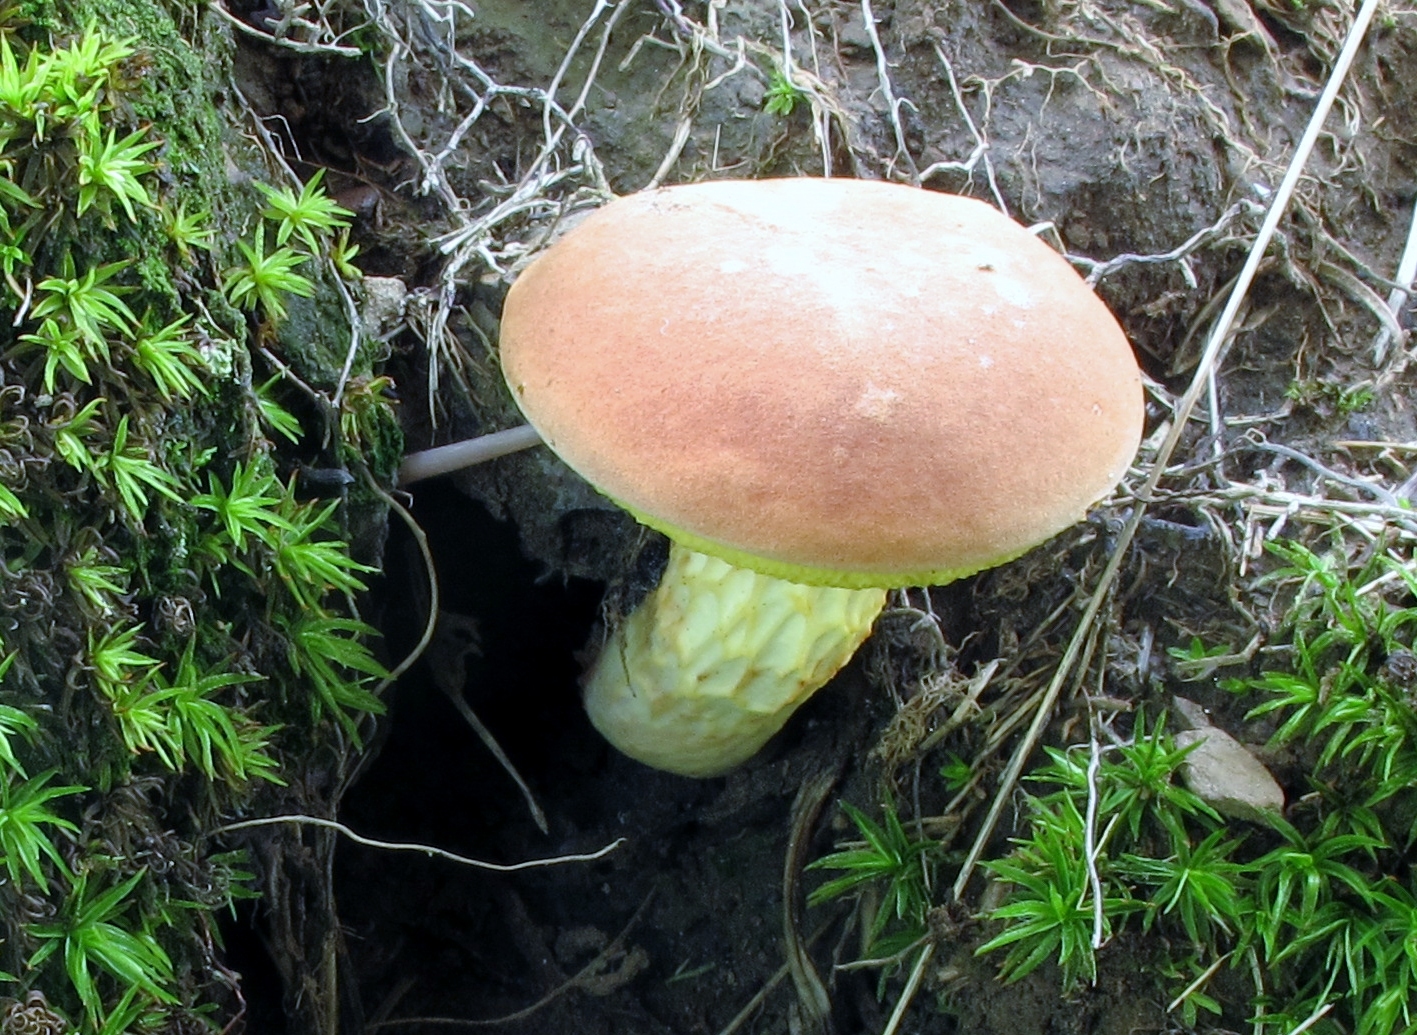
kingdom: Fungi
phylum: Basidiomycota
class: Agaricomycetes
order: Boletales
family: Boletaceae
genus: Xerocomus
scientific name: Xerocomus illudens
